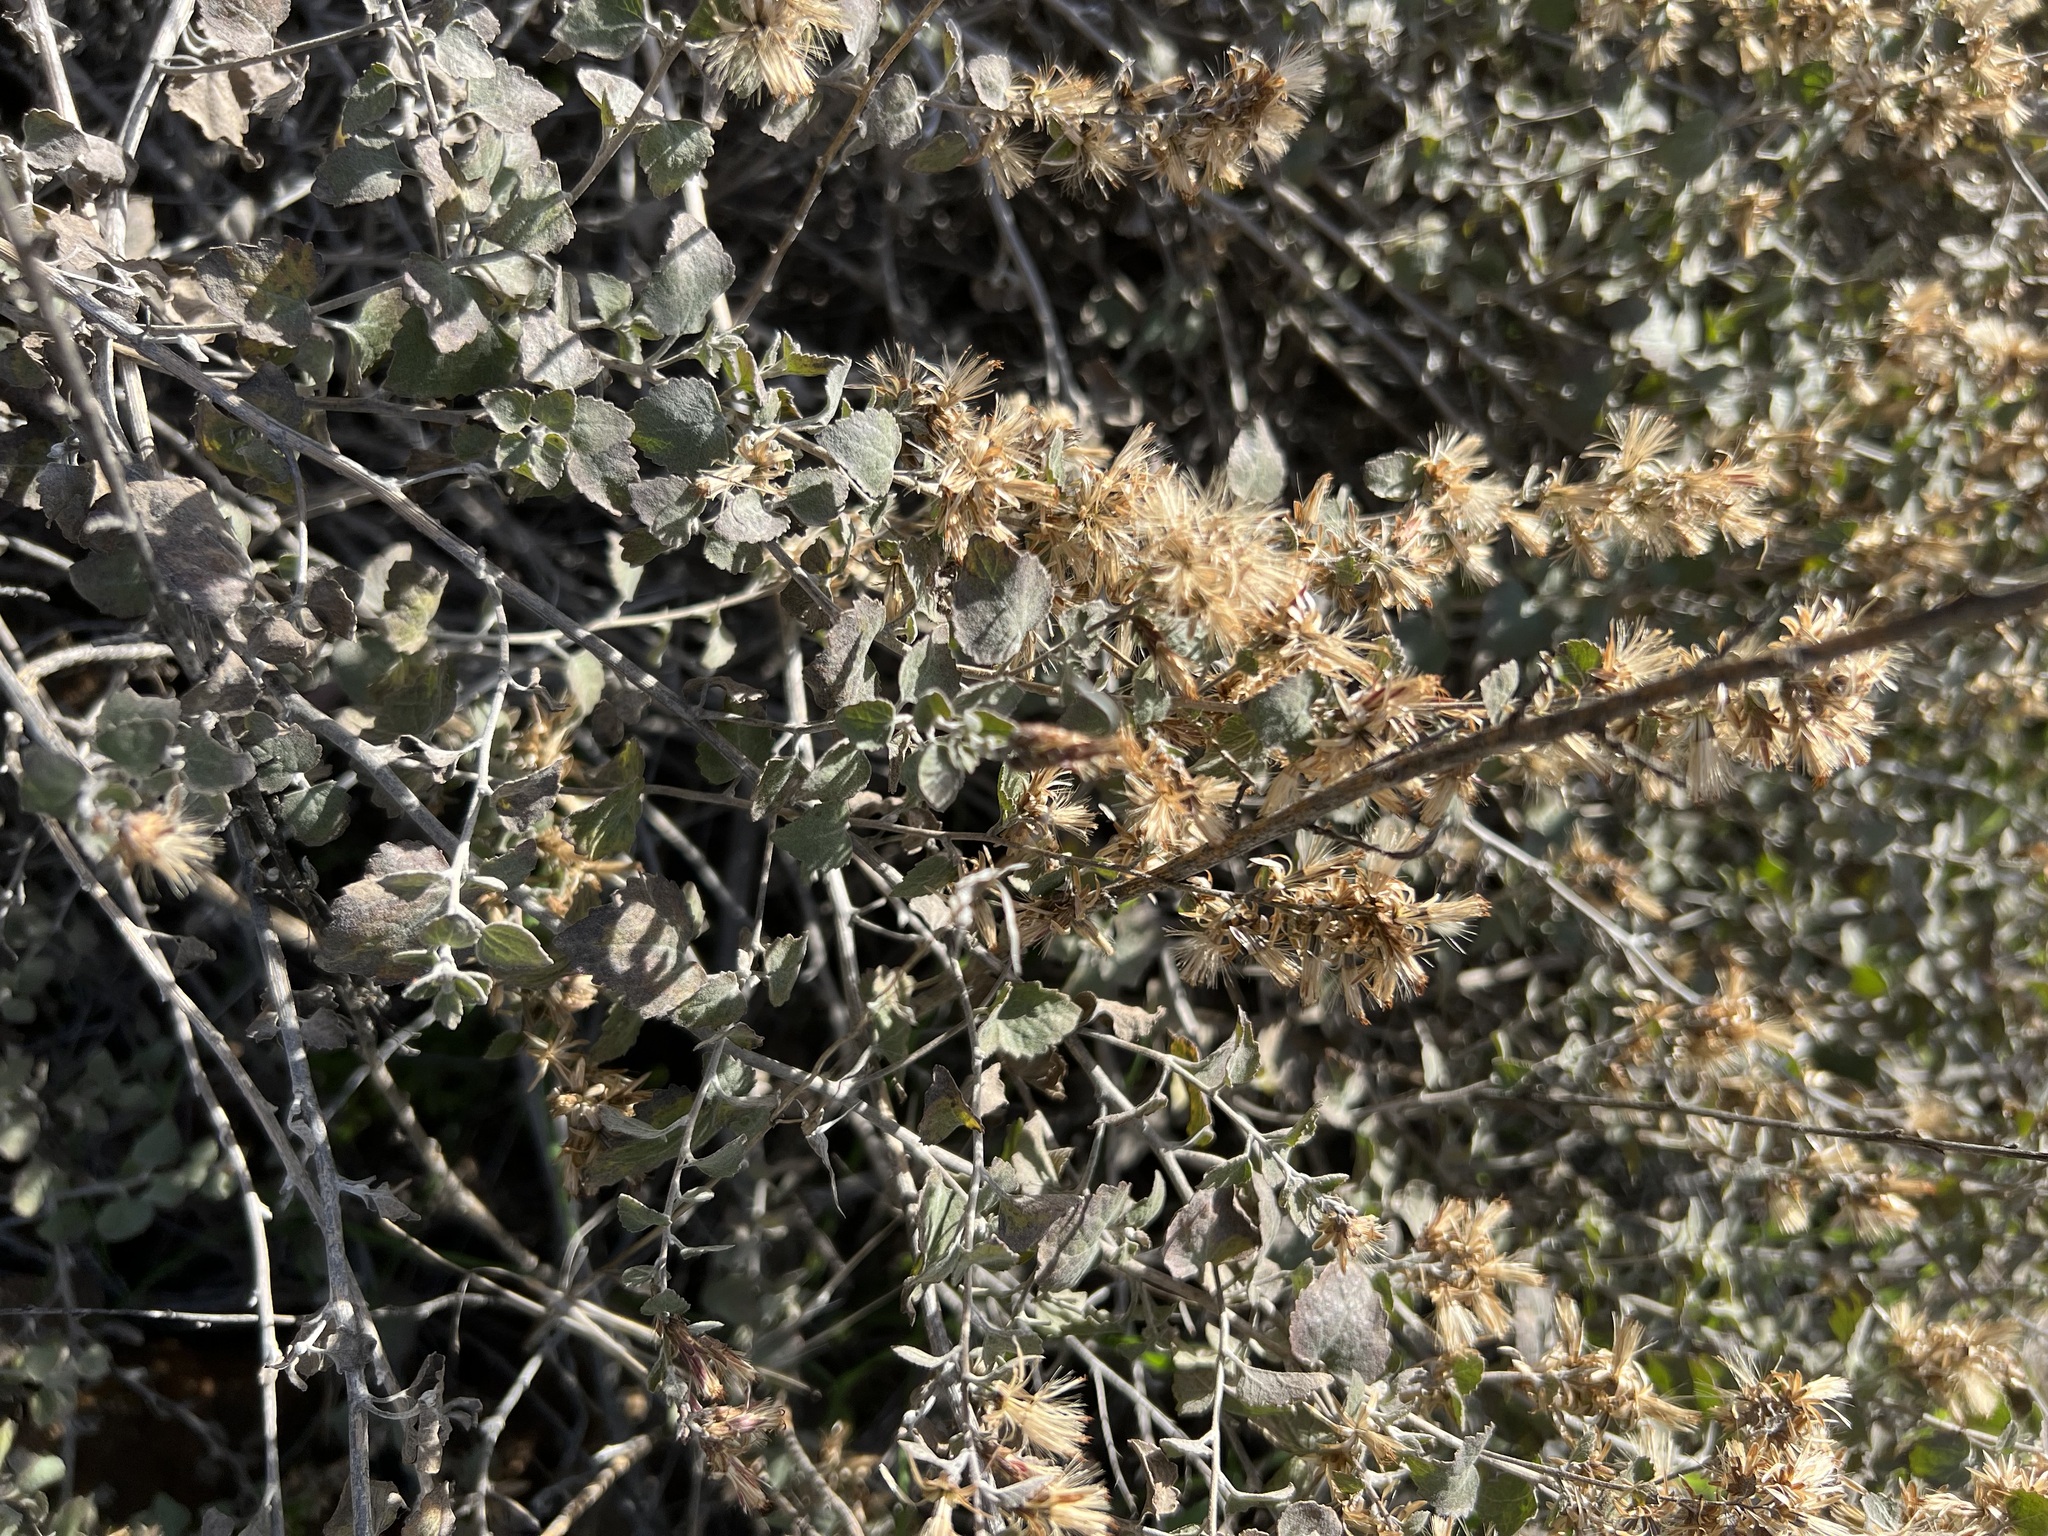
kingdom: Plantae
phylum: Tracheophyta
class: Magnoliopsida
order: Asterales
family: Asteraceae
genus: Brickellia
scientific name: Brickellia californica
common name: California brickellbush
